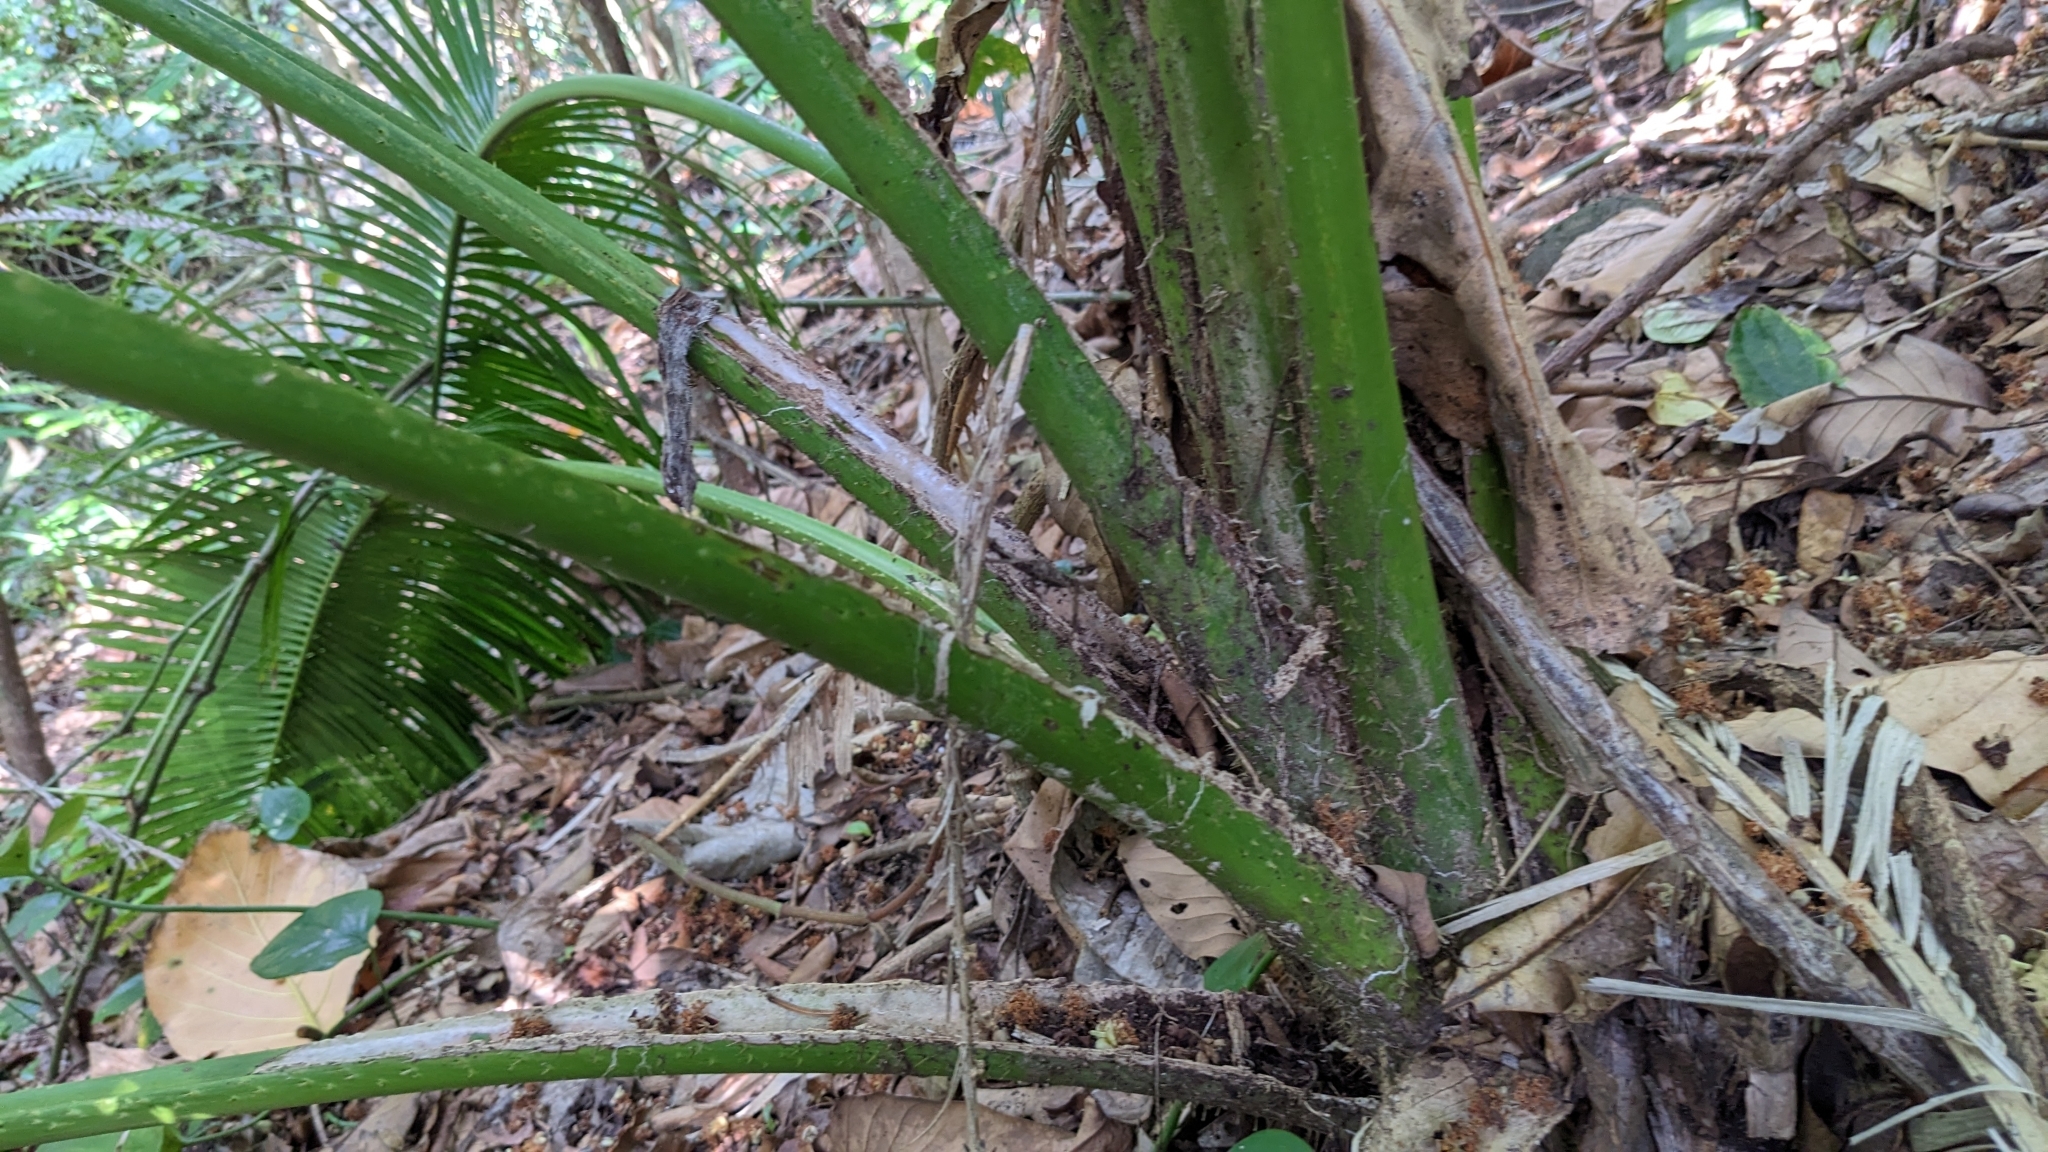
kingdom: Plantae
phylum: Tracheophyta
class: Liliopsida
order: Arecales
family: Arecaceae
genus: Calamus
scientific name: Calamus siphonospathus
